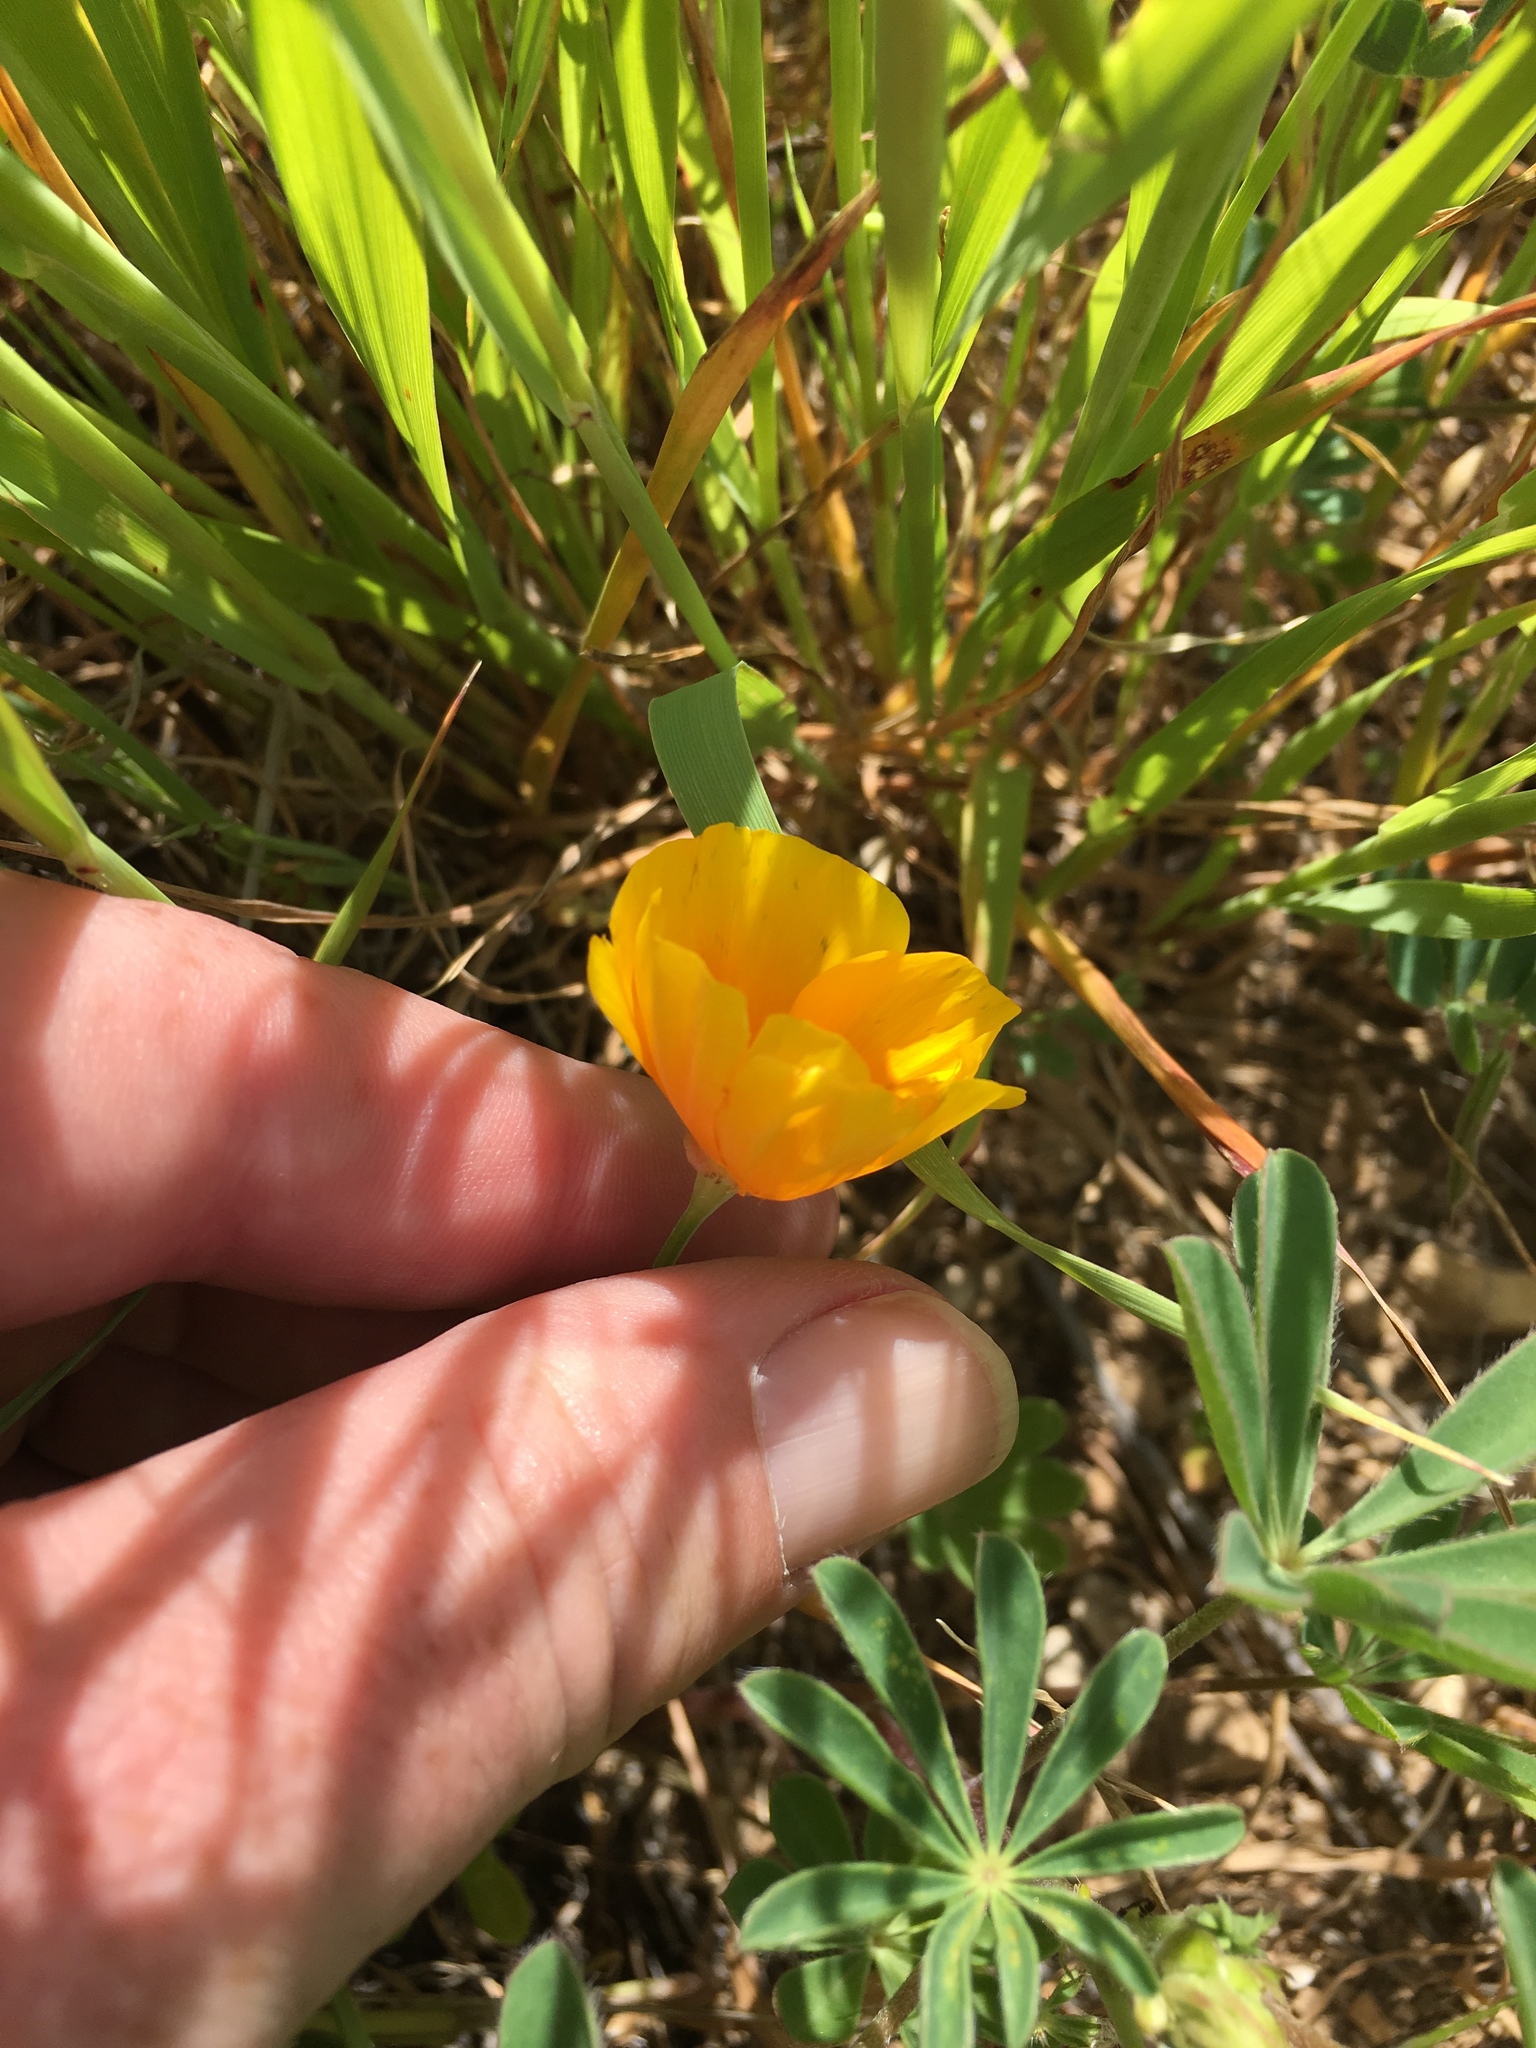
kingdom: Plantae
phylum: Tracheophyta
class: Magnoliopsida
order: Ranunculales
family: Papaveraceae
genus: Eschscholzia
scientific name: Eschscholzia californica
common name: California poppy
